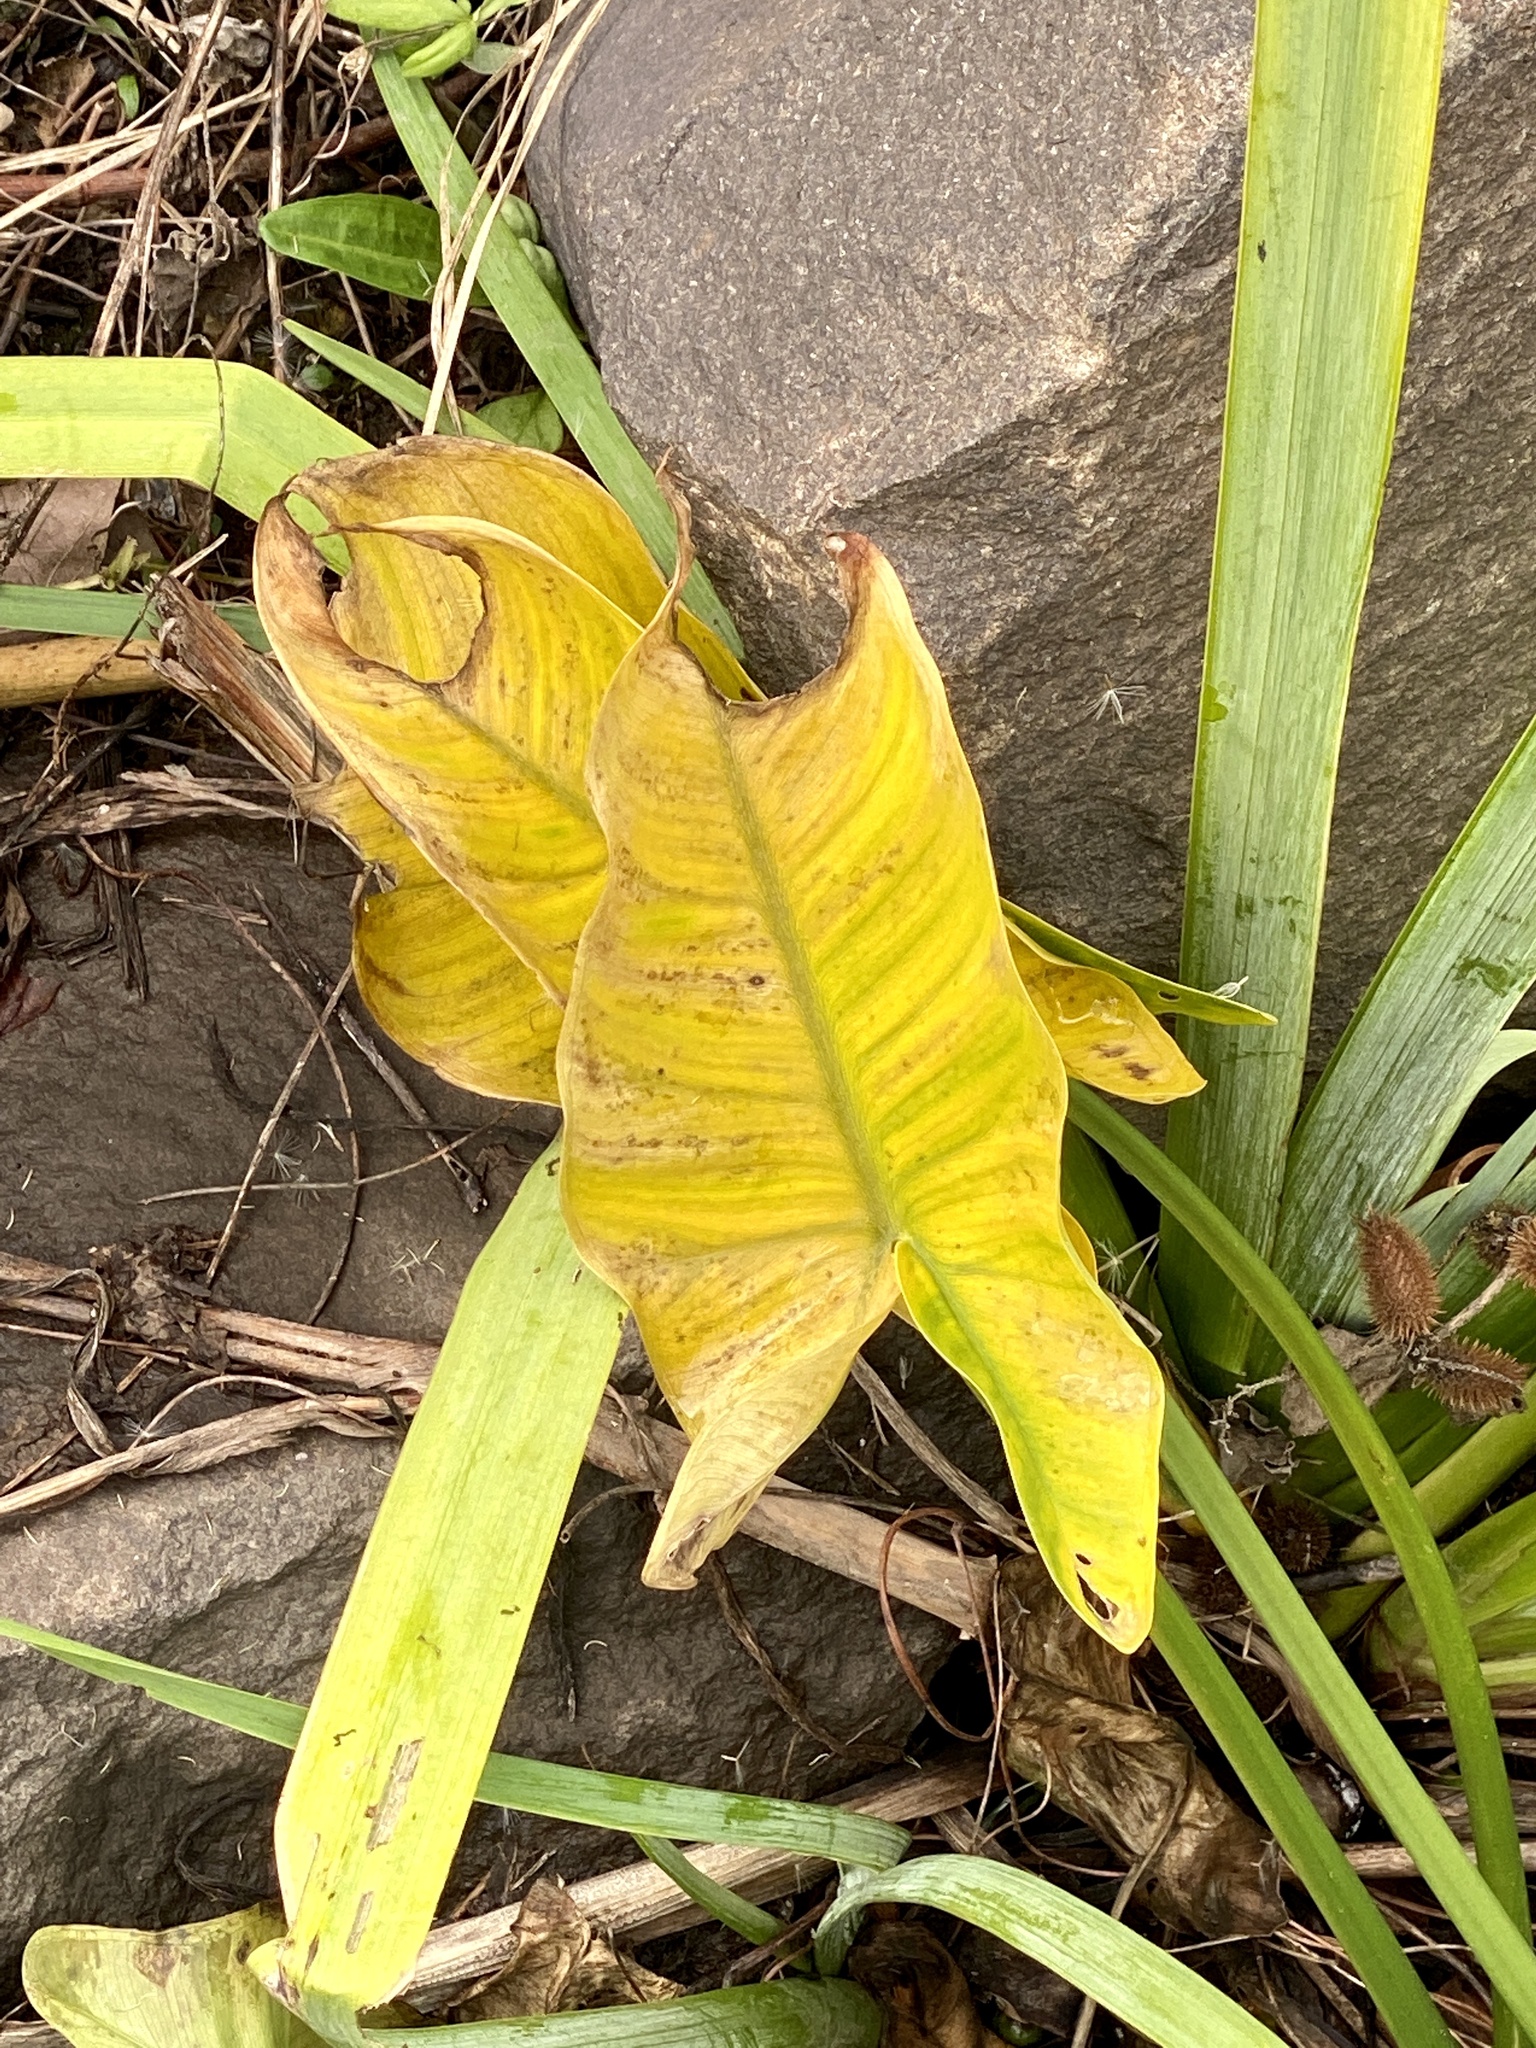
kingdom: Plantae
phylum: Tracheophyta
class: Liliopsida
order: Alismatales
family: Araceae
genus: Peltandra
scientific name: Peltandra virginica
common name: Arrow arum
